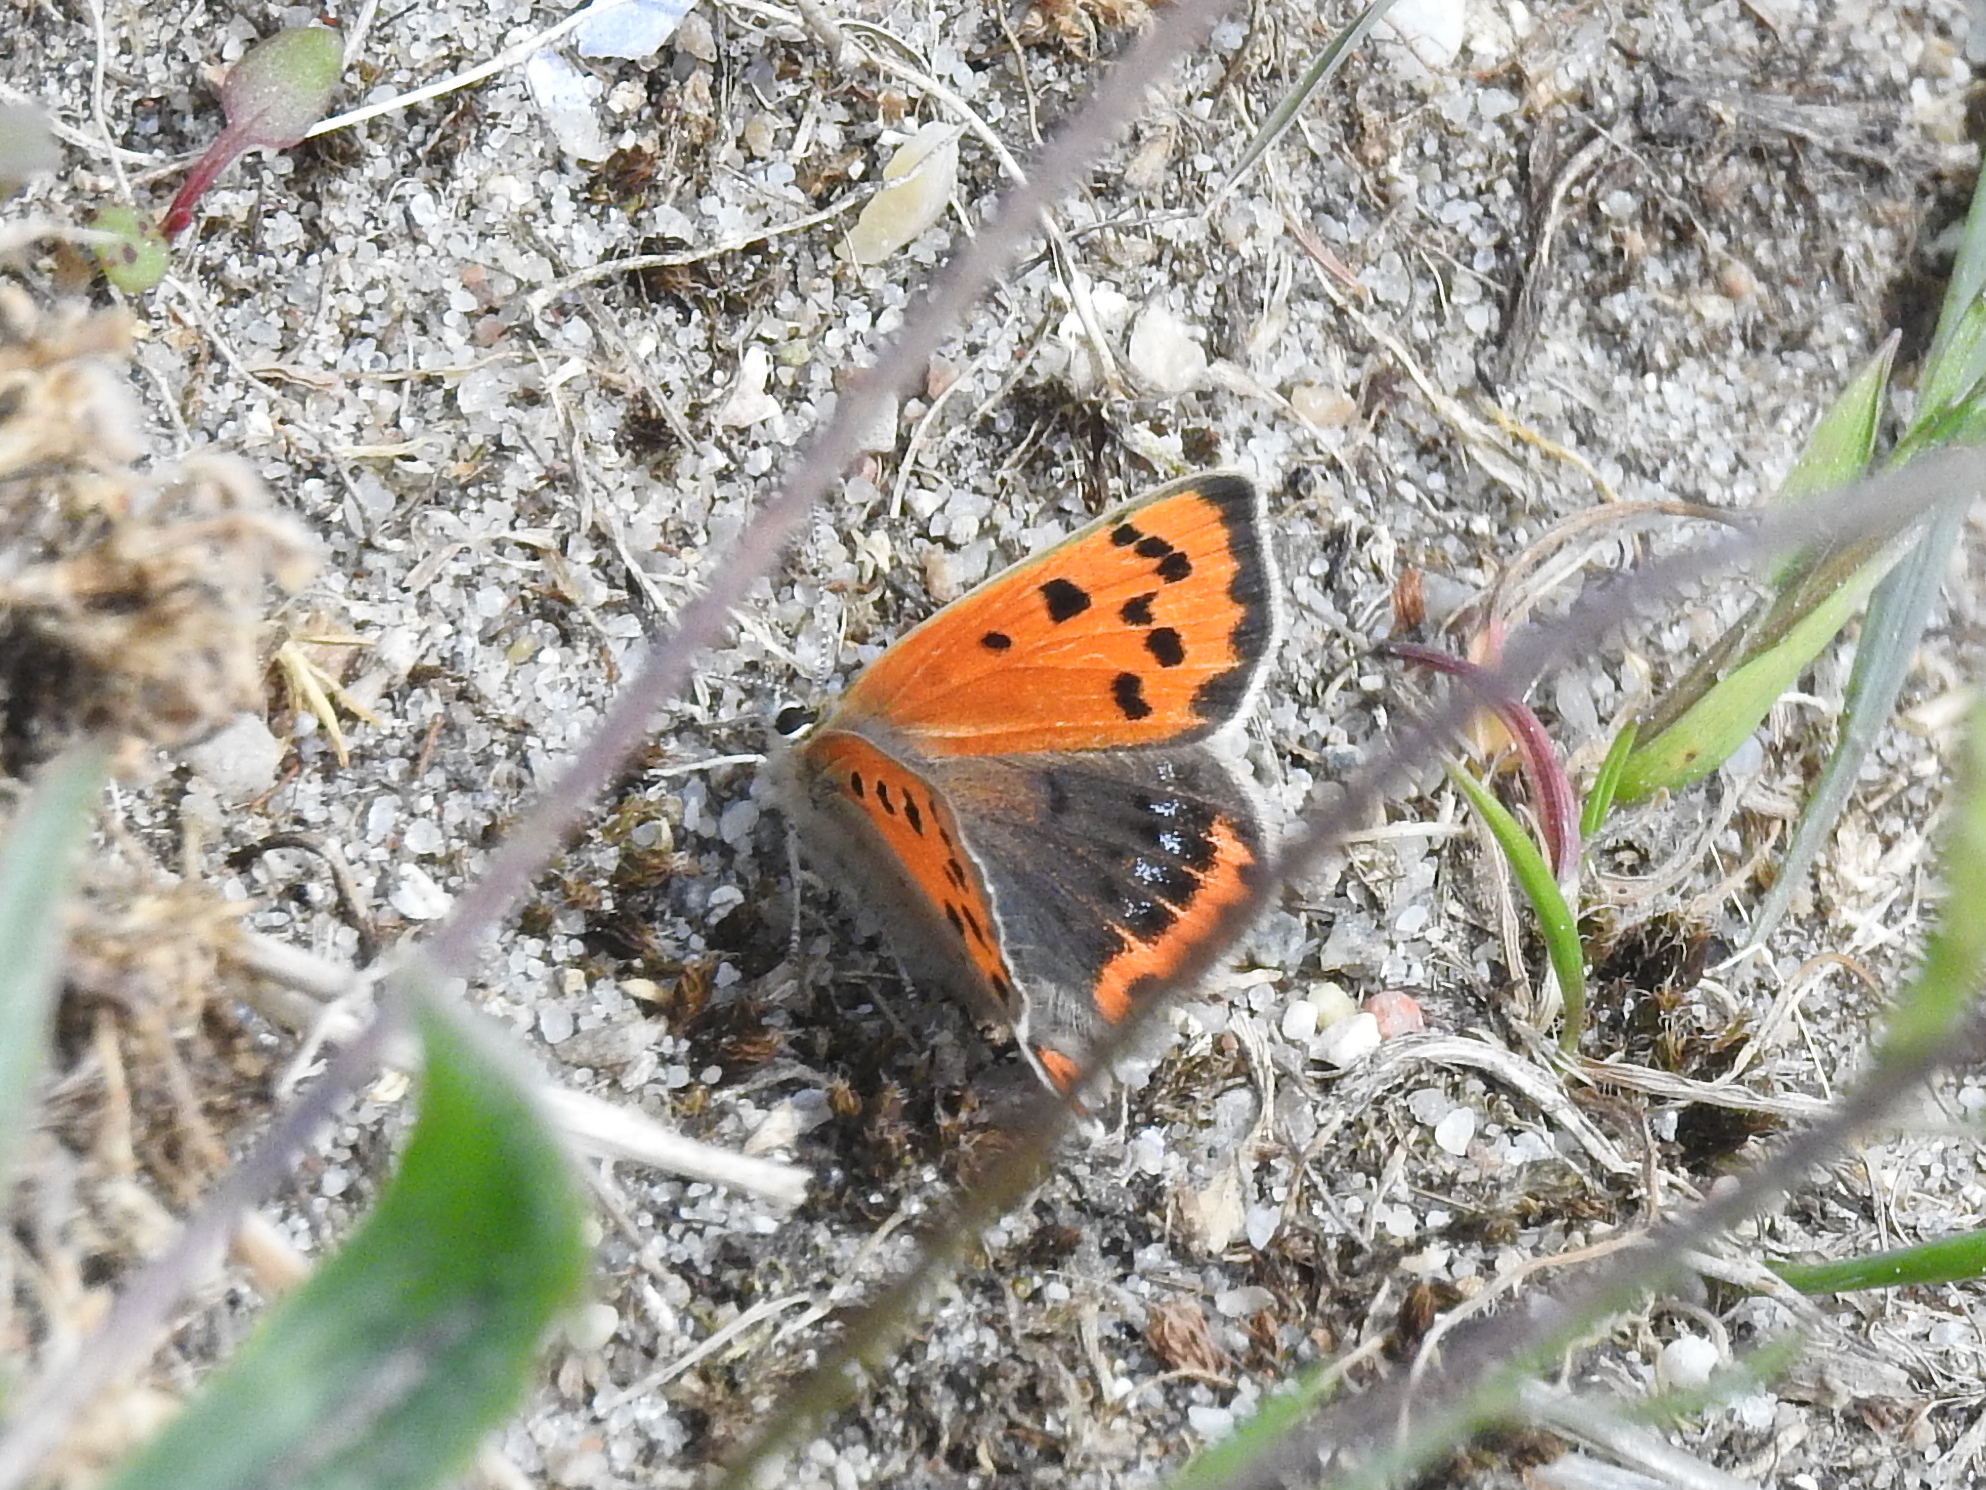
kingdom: Animalia
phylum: Arthropoda
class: Insecta
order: Lepidoptera
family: Lycaenidae
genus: Lycaena
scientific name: Lycaena phlaeas
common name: Small copper
